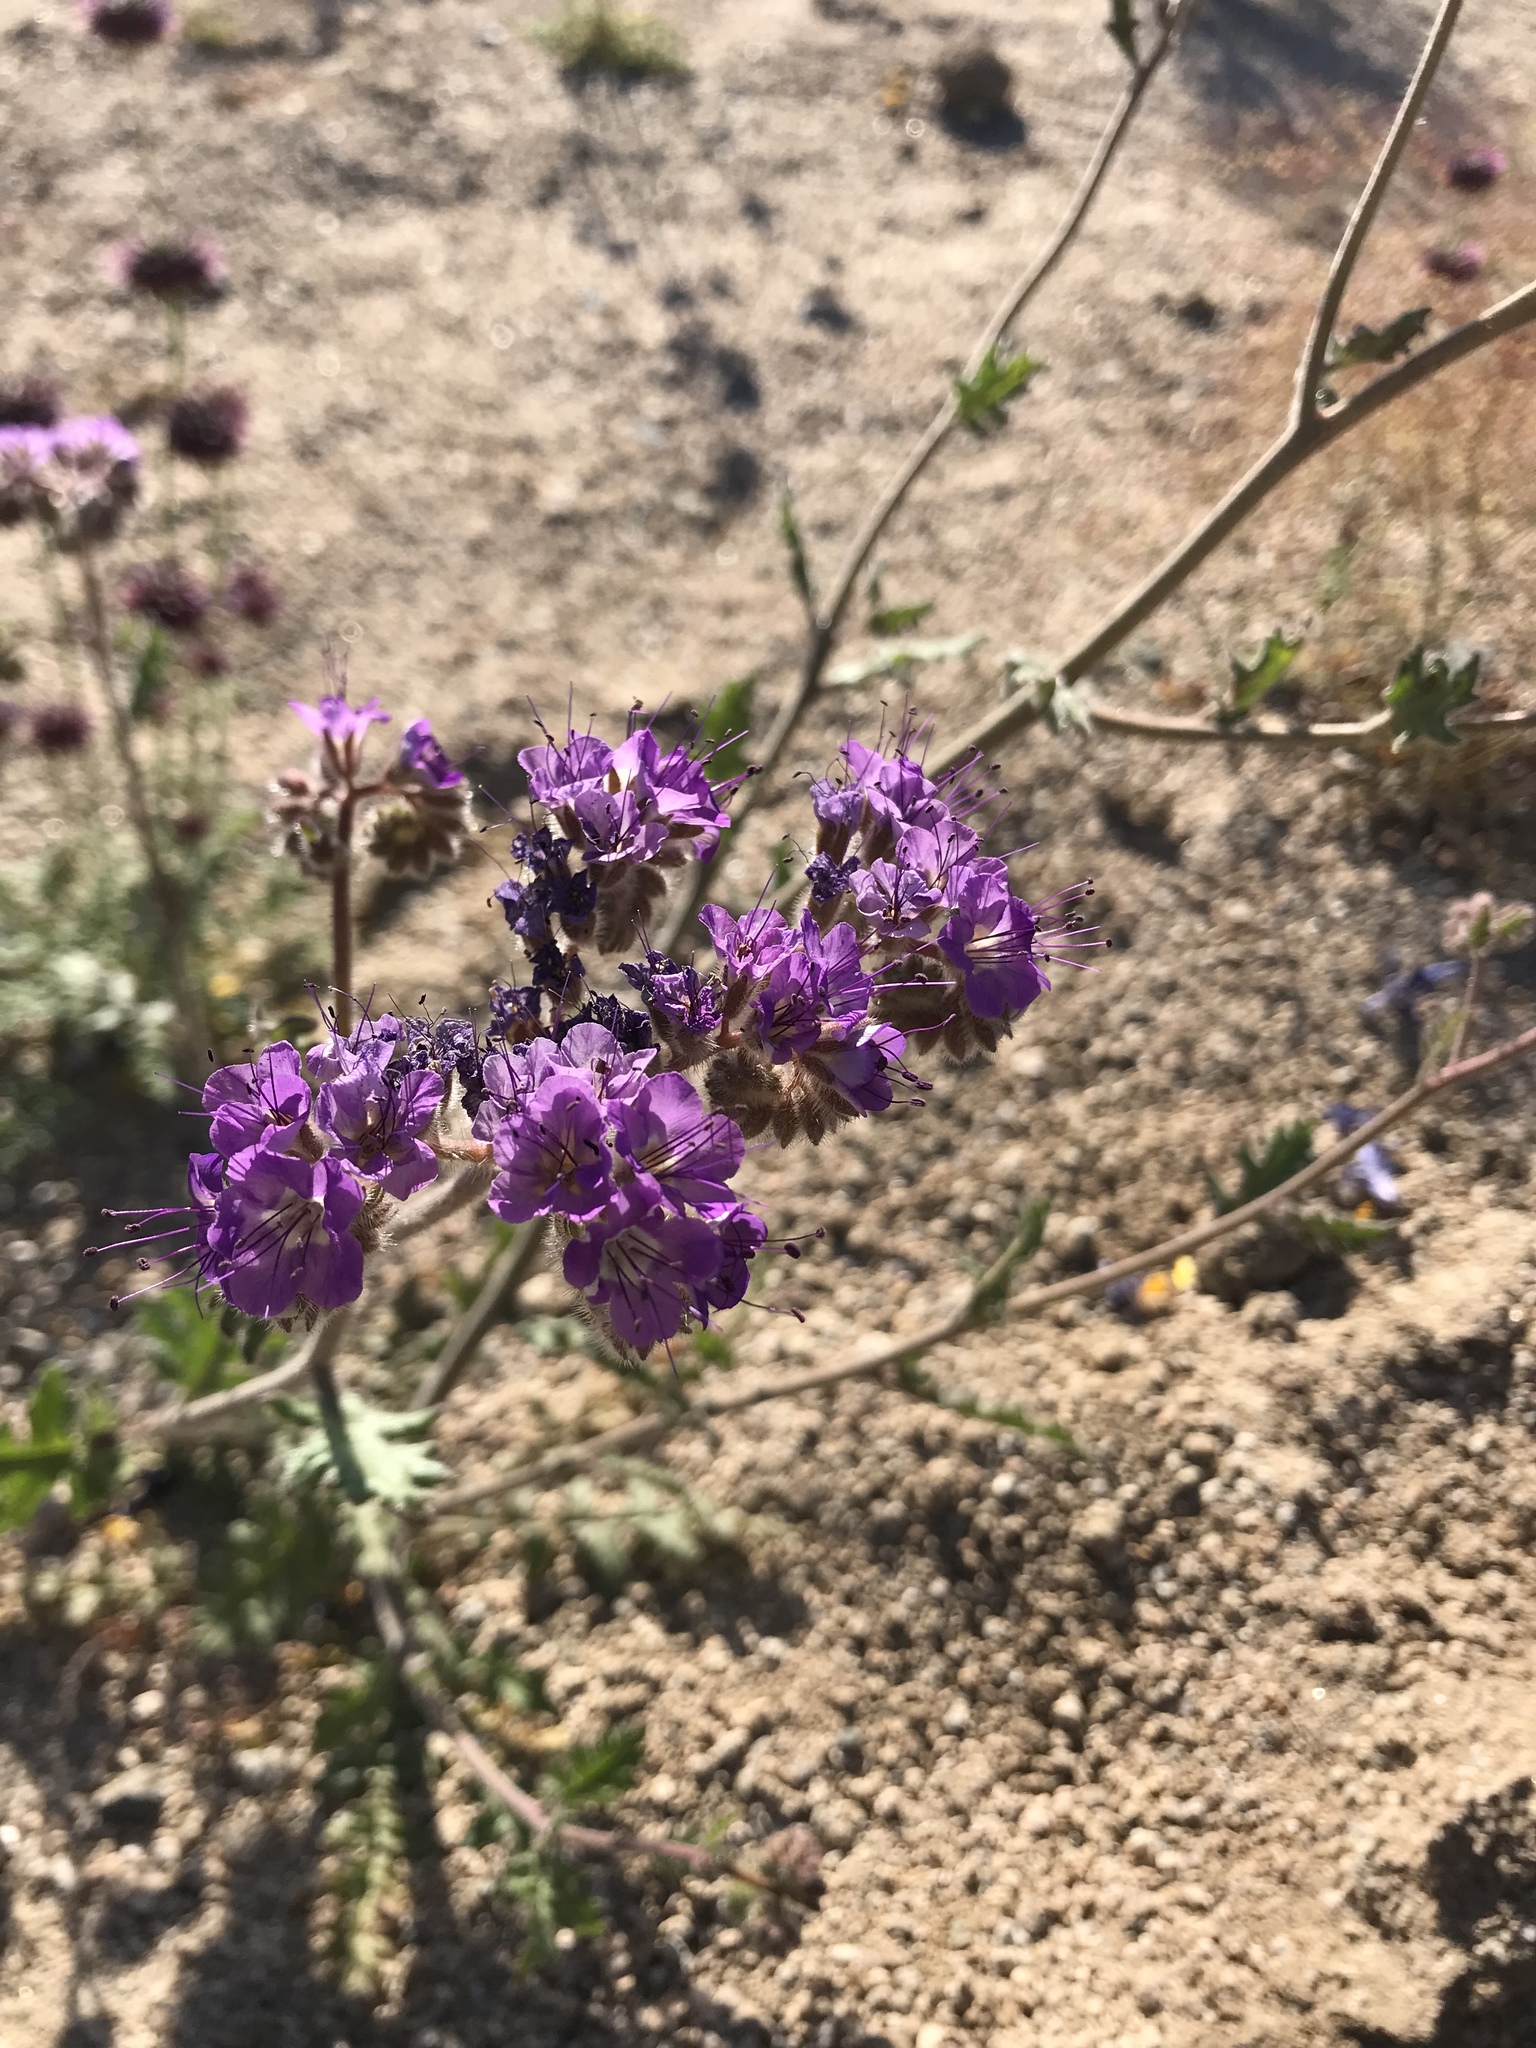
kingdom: Plantae
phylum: Tracheophyta
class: Magnoliopsida
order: Boraginales
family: Hydrophyllaceae
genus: Phacelia
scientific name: Phacelia crenulata
